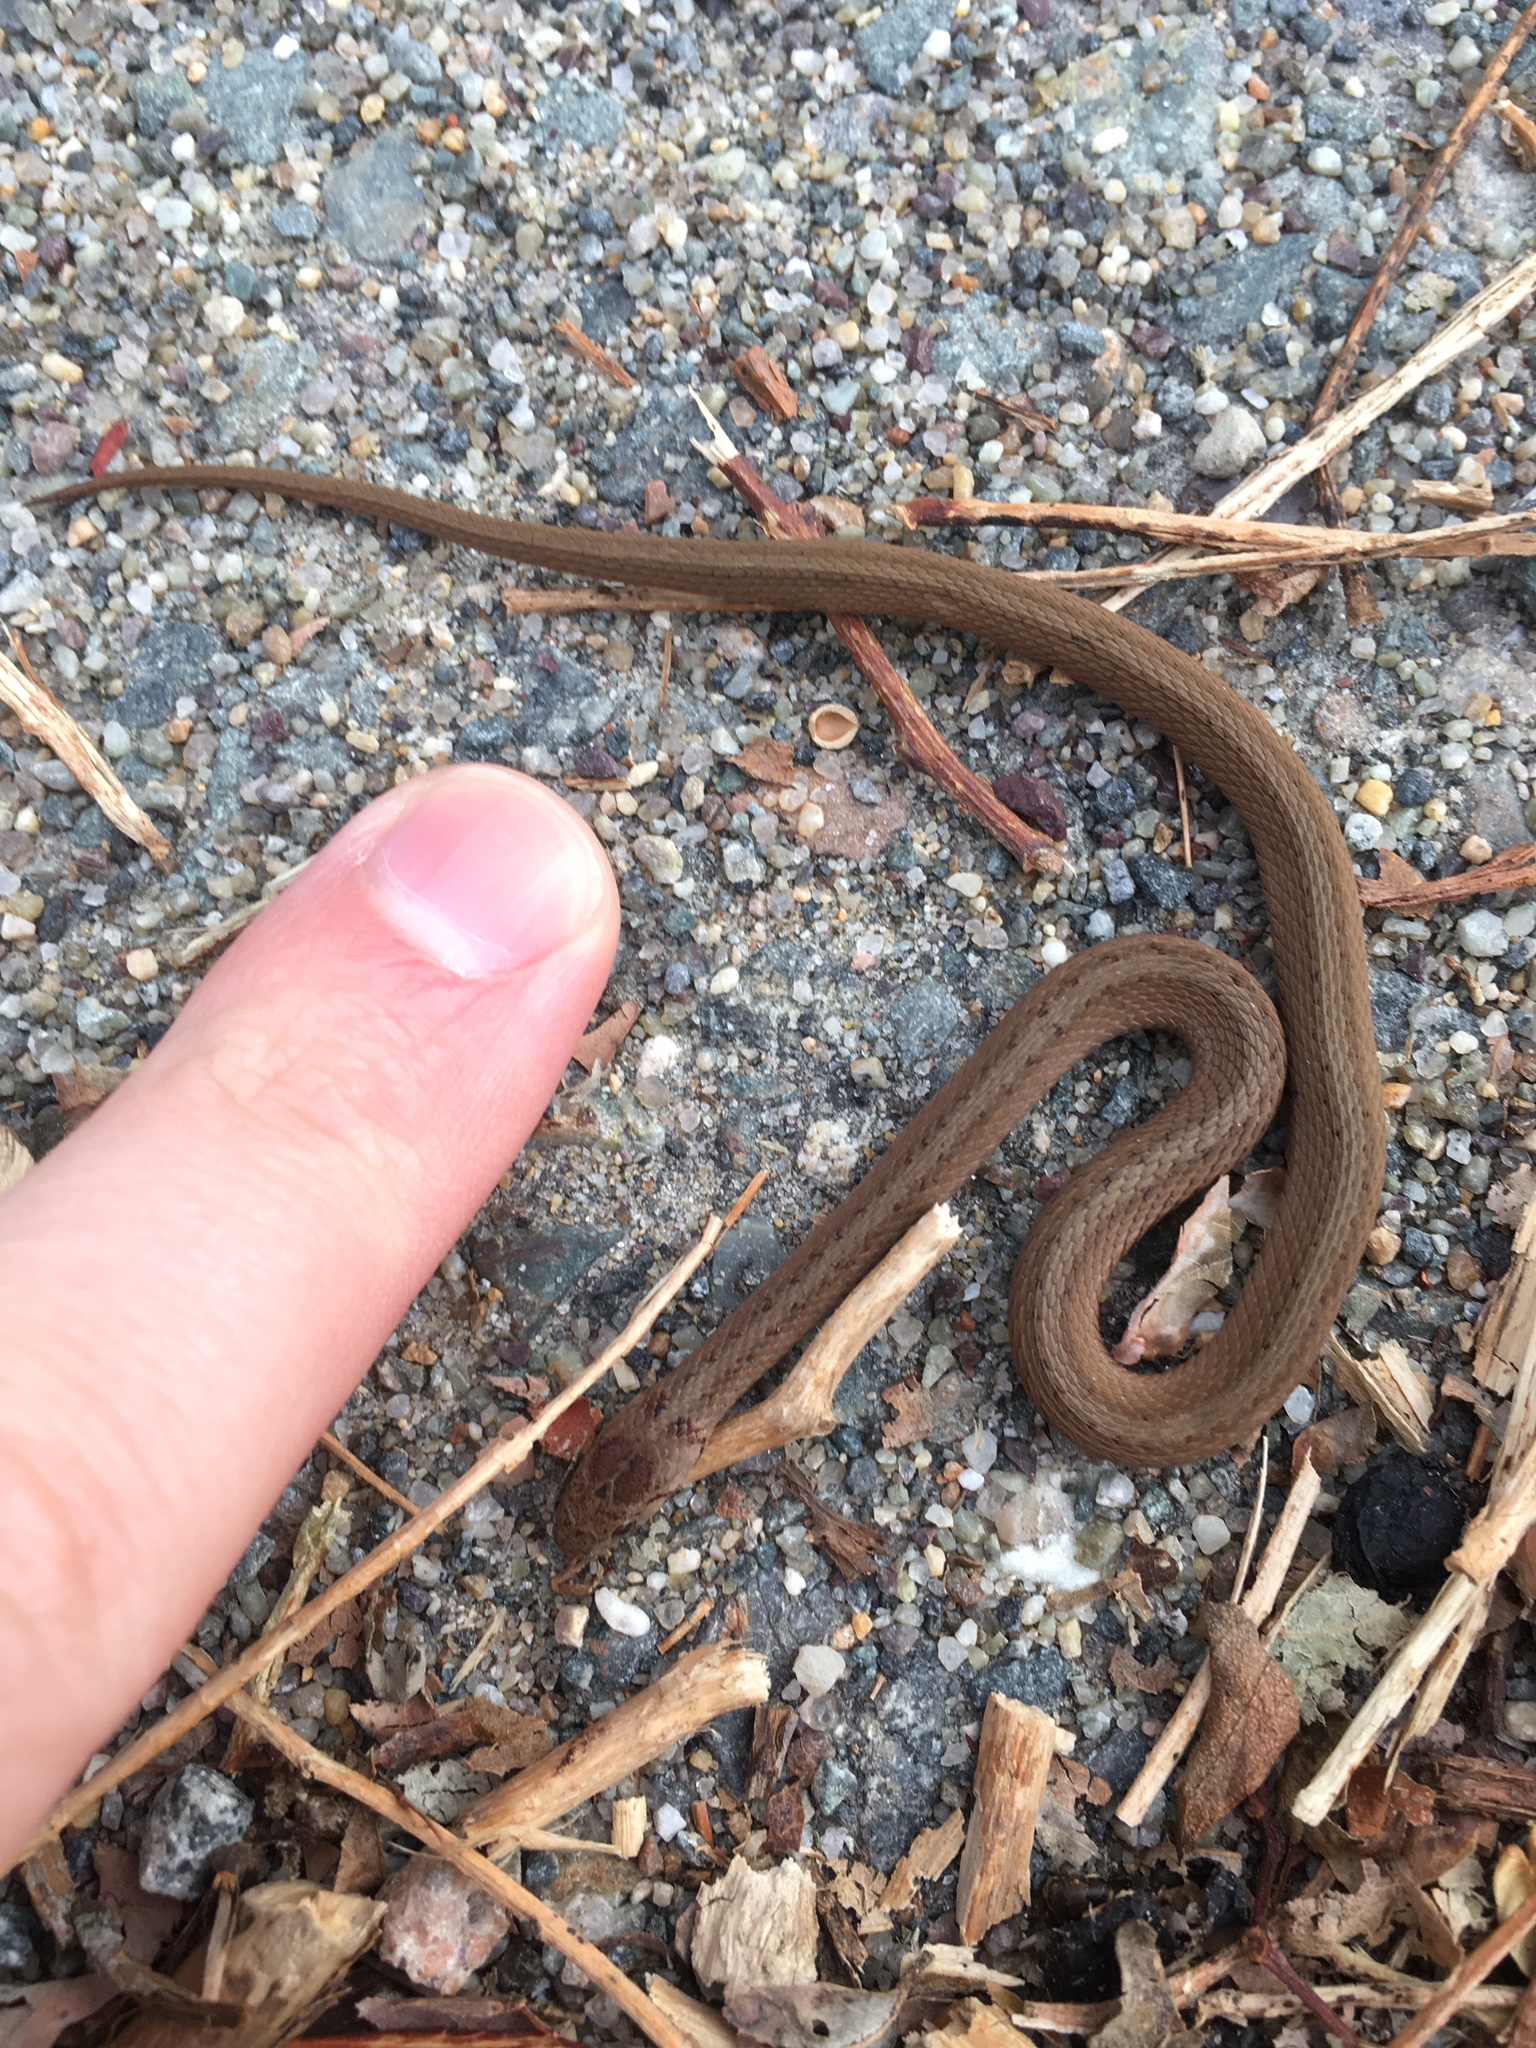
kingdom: Animalia
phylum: Chordata
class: Squamata
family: Colubridae
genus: Storeria
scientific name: Storeria dekayi
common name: (dekay’s) brown snake
